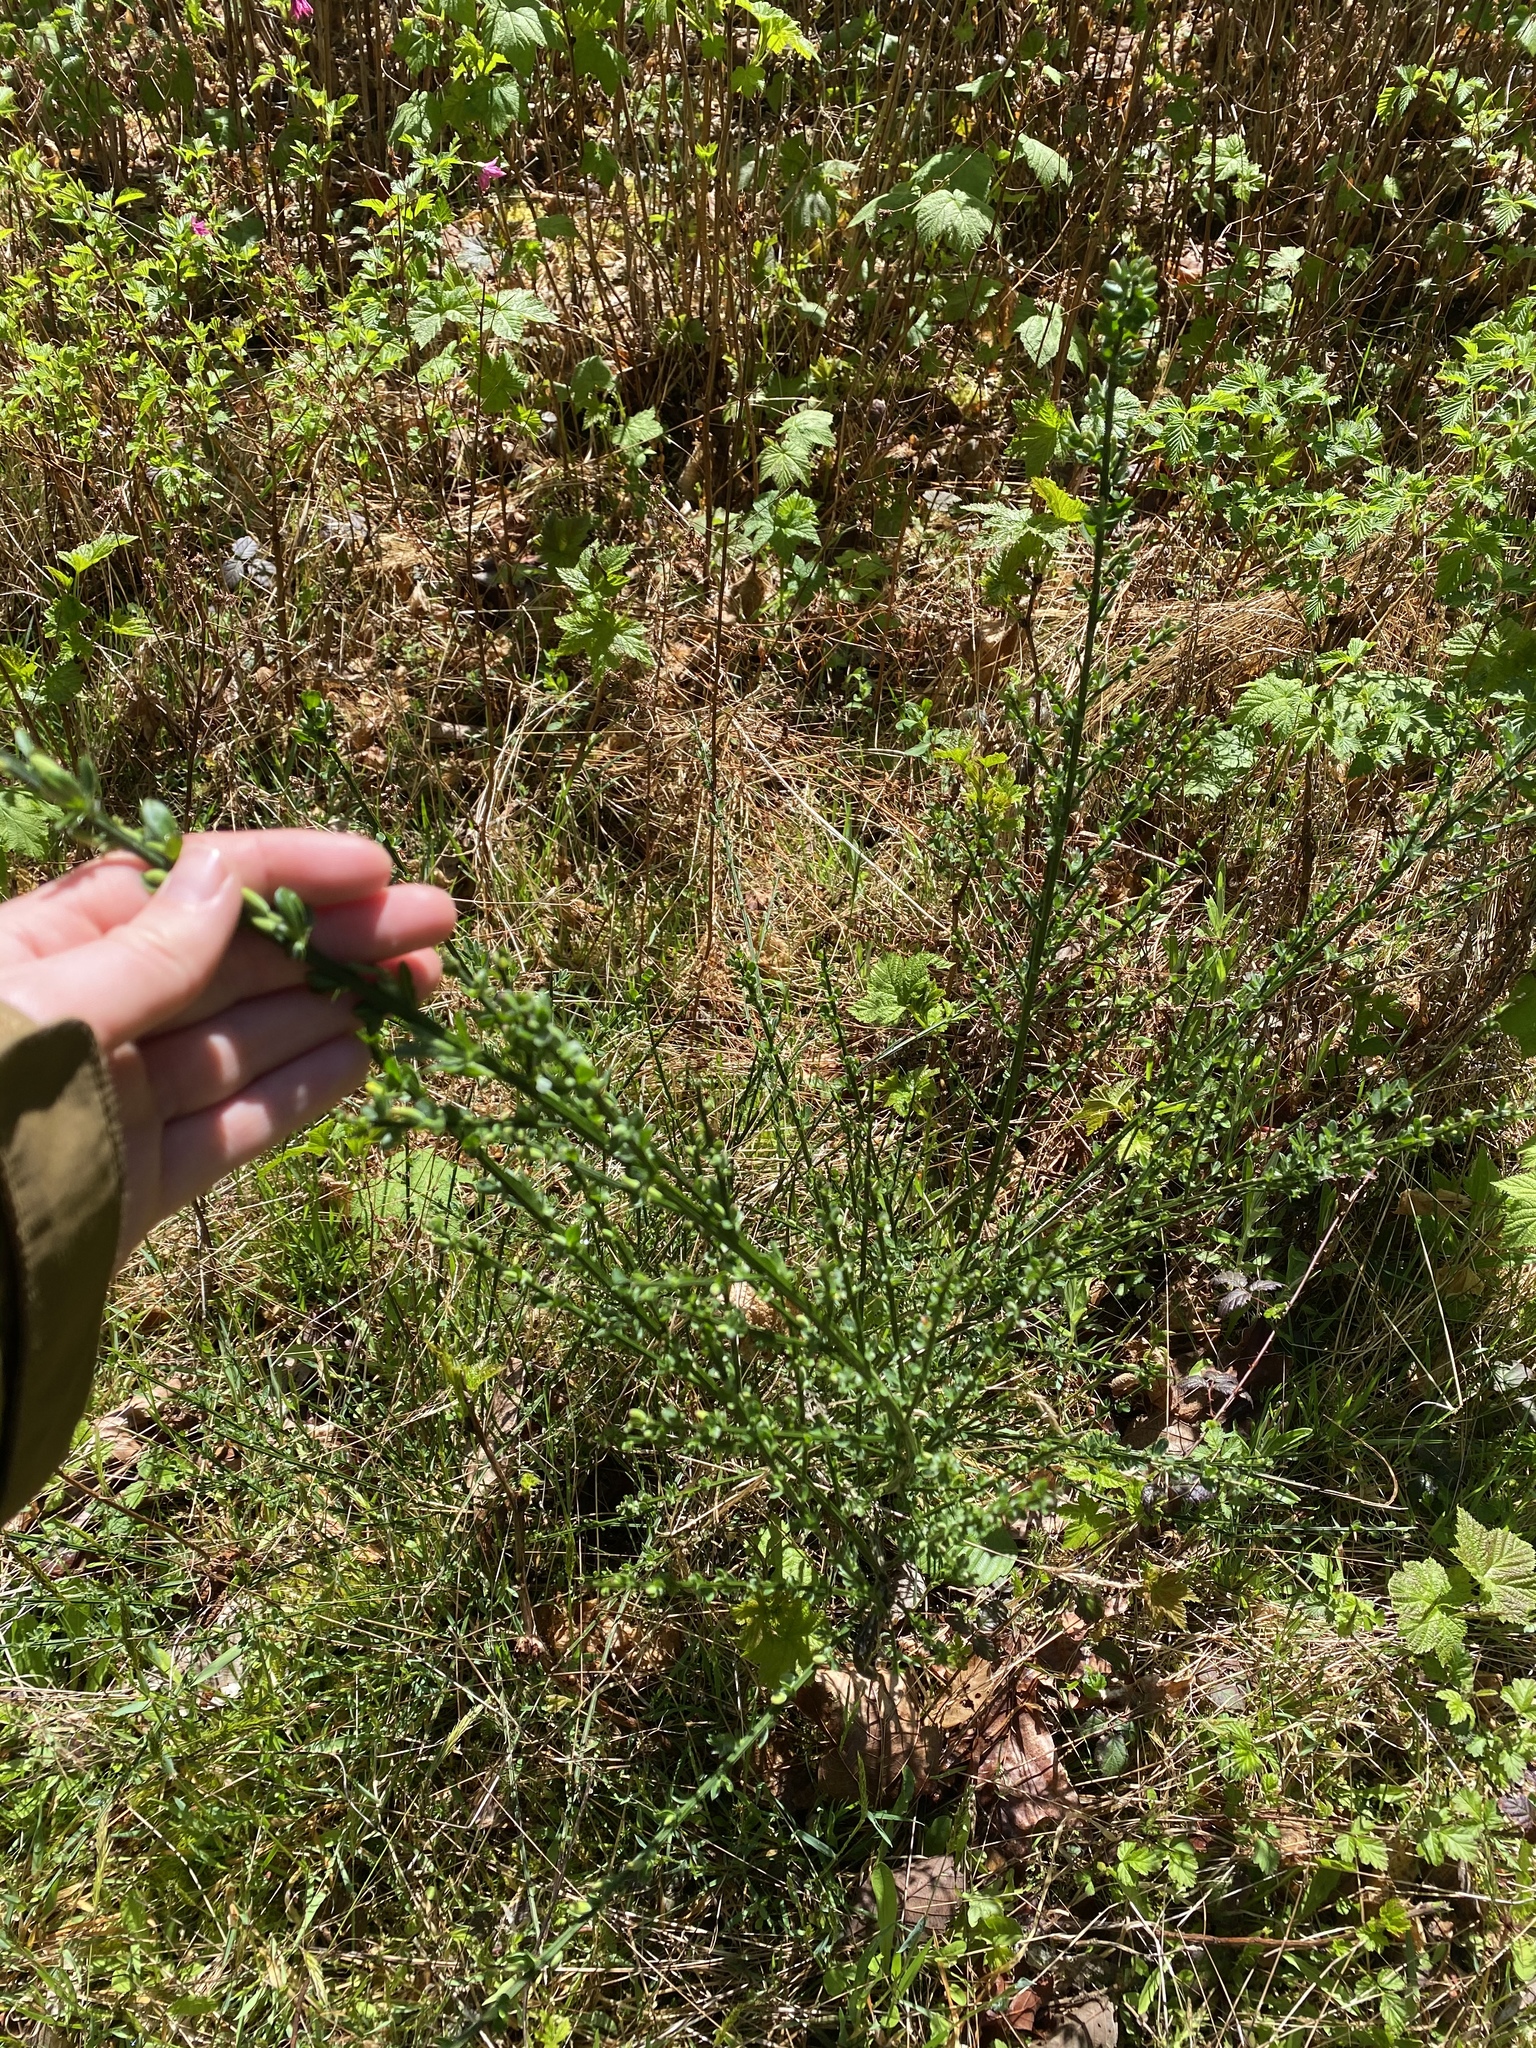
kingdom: Plantae
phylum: Tracheophyta
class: Magnoliopsida
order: Fabales
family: Fabaceae
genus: Cytisus
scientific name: Cytisus scoparius
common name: Scotch broom
